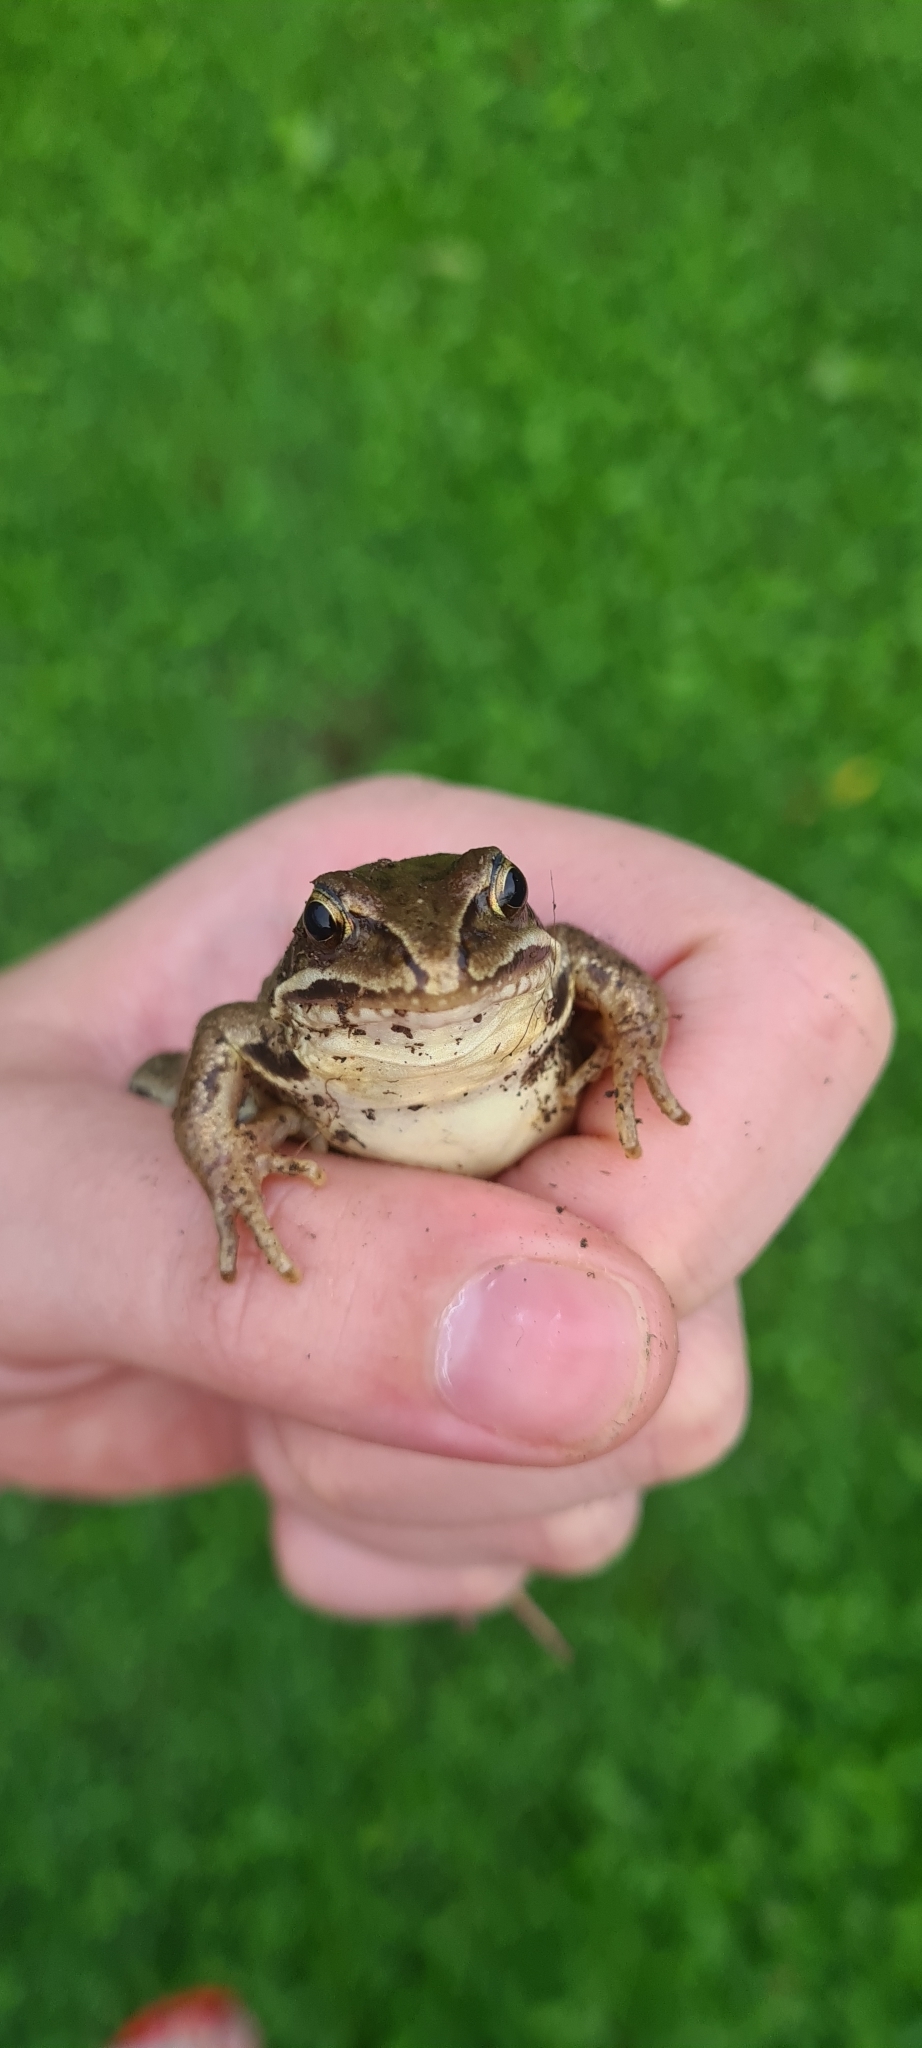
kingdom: Animalia
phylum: Chordata
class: Amphibia
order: Anura
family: Ranidae
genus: Rana
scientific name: Rana arvalis
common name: Moor frog
